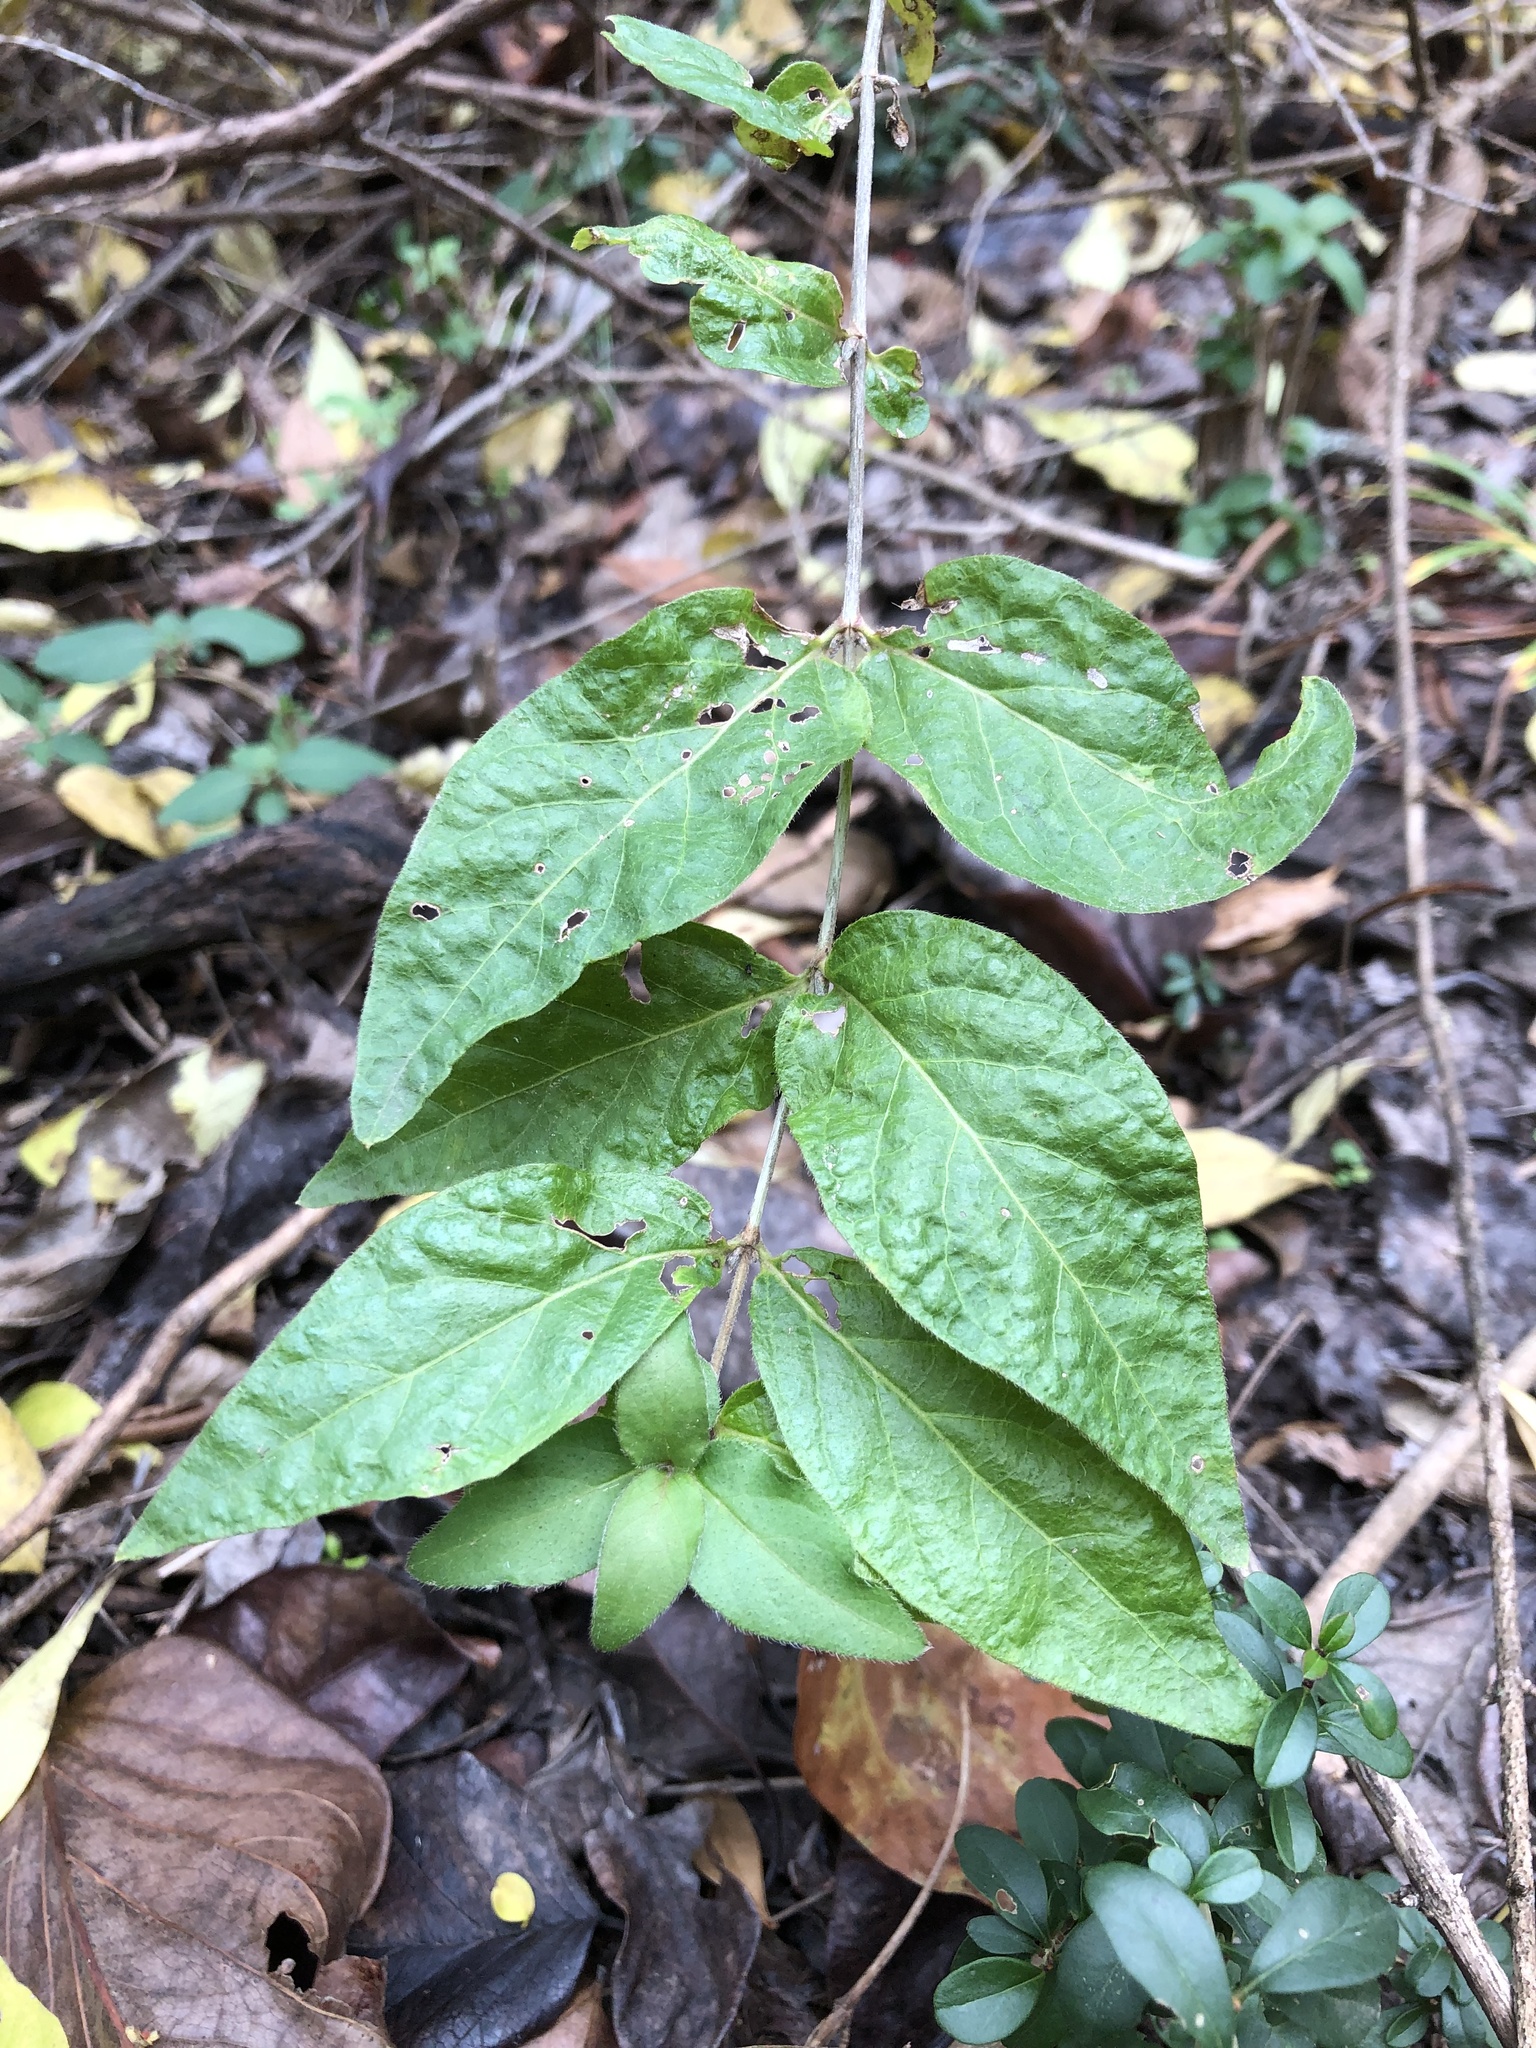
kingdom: Plantae
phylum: Tracheophyta
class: Magnoliopsida
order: Dipsacales
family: Caprifoliaceae
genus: Lonicera
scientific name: Lonicera maackii
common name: Amur honeysuckle
